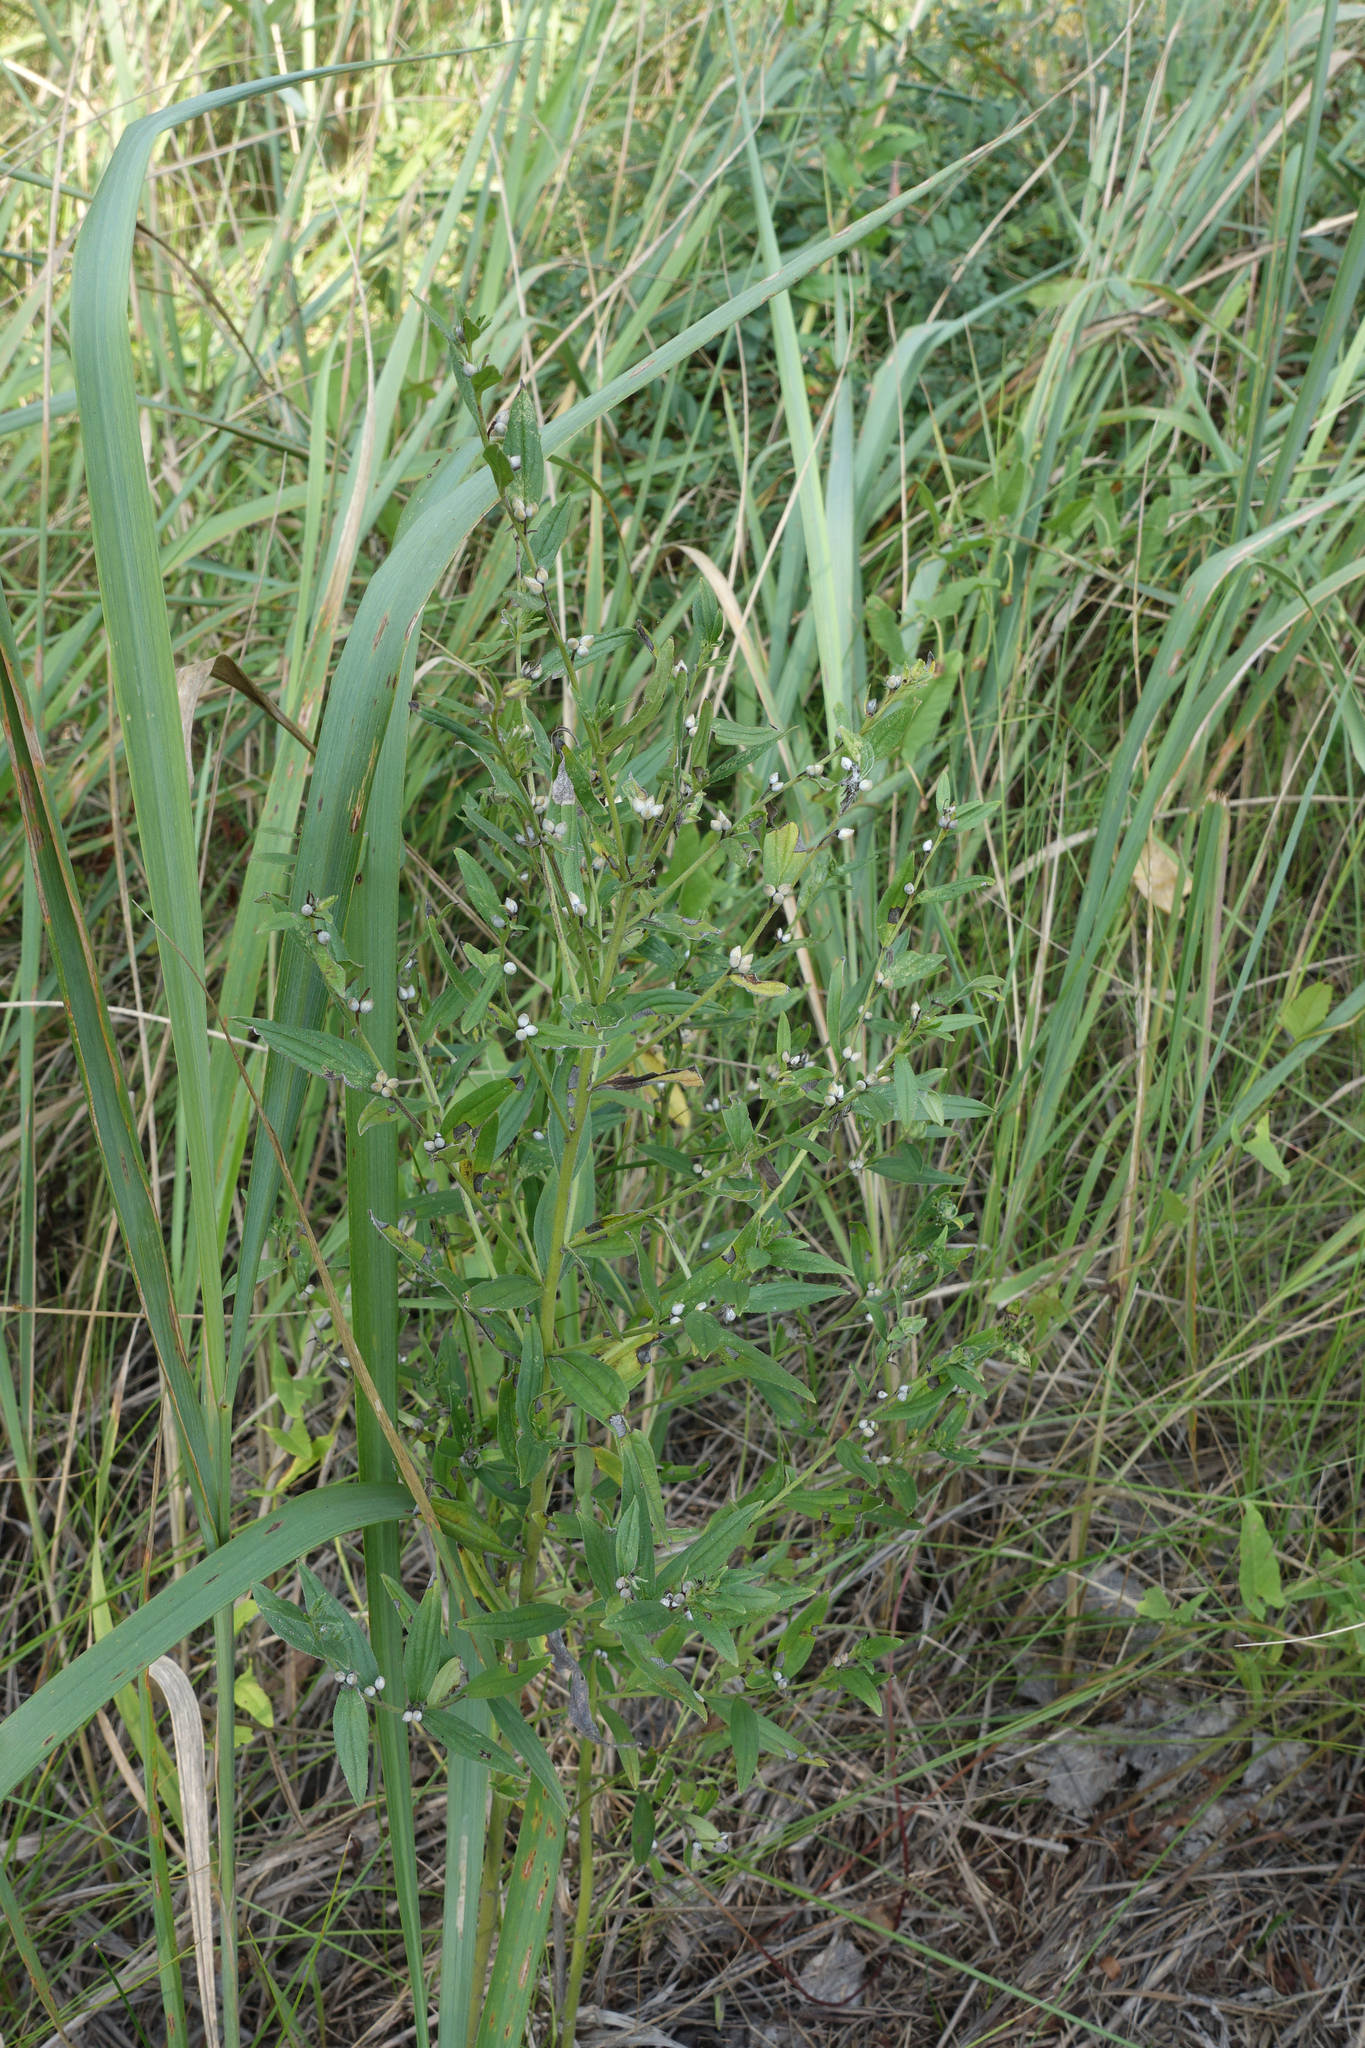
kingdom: Plantae
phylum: Tracheophyta
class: Magnoliopsida
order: Boraginales
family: Boraginaceae
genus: Lithospermum
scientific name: Lithospermum officinale
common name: Common gromwell
